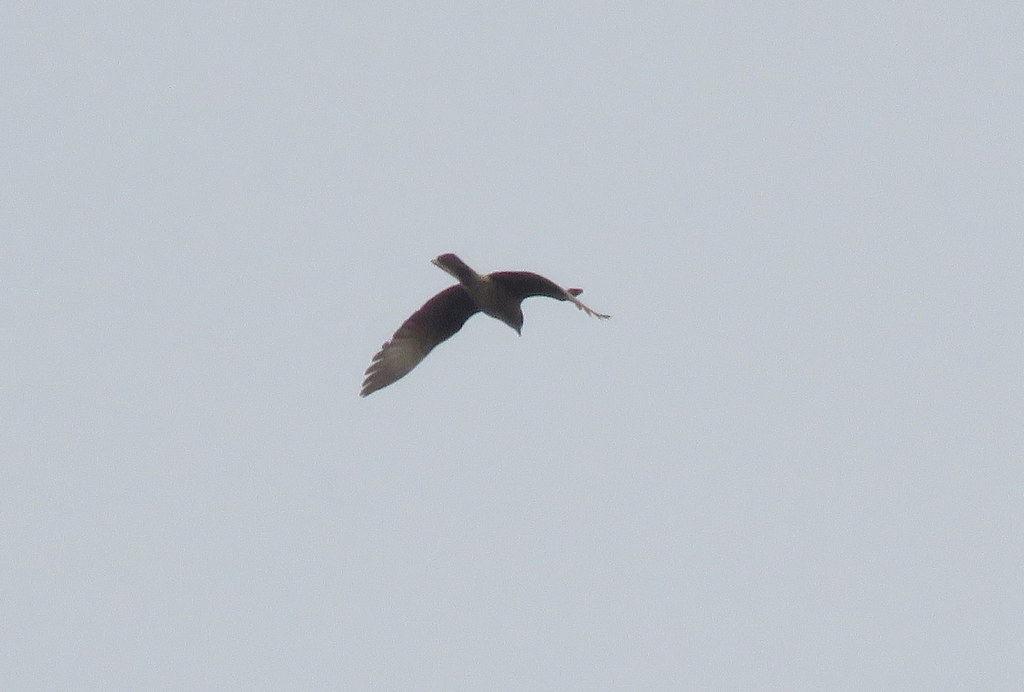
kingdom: Animalia
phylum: Chordata
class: Aves
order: Falconiformes
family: Falconidae
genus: Daptrius
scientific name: Daptrius
